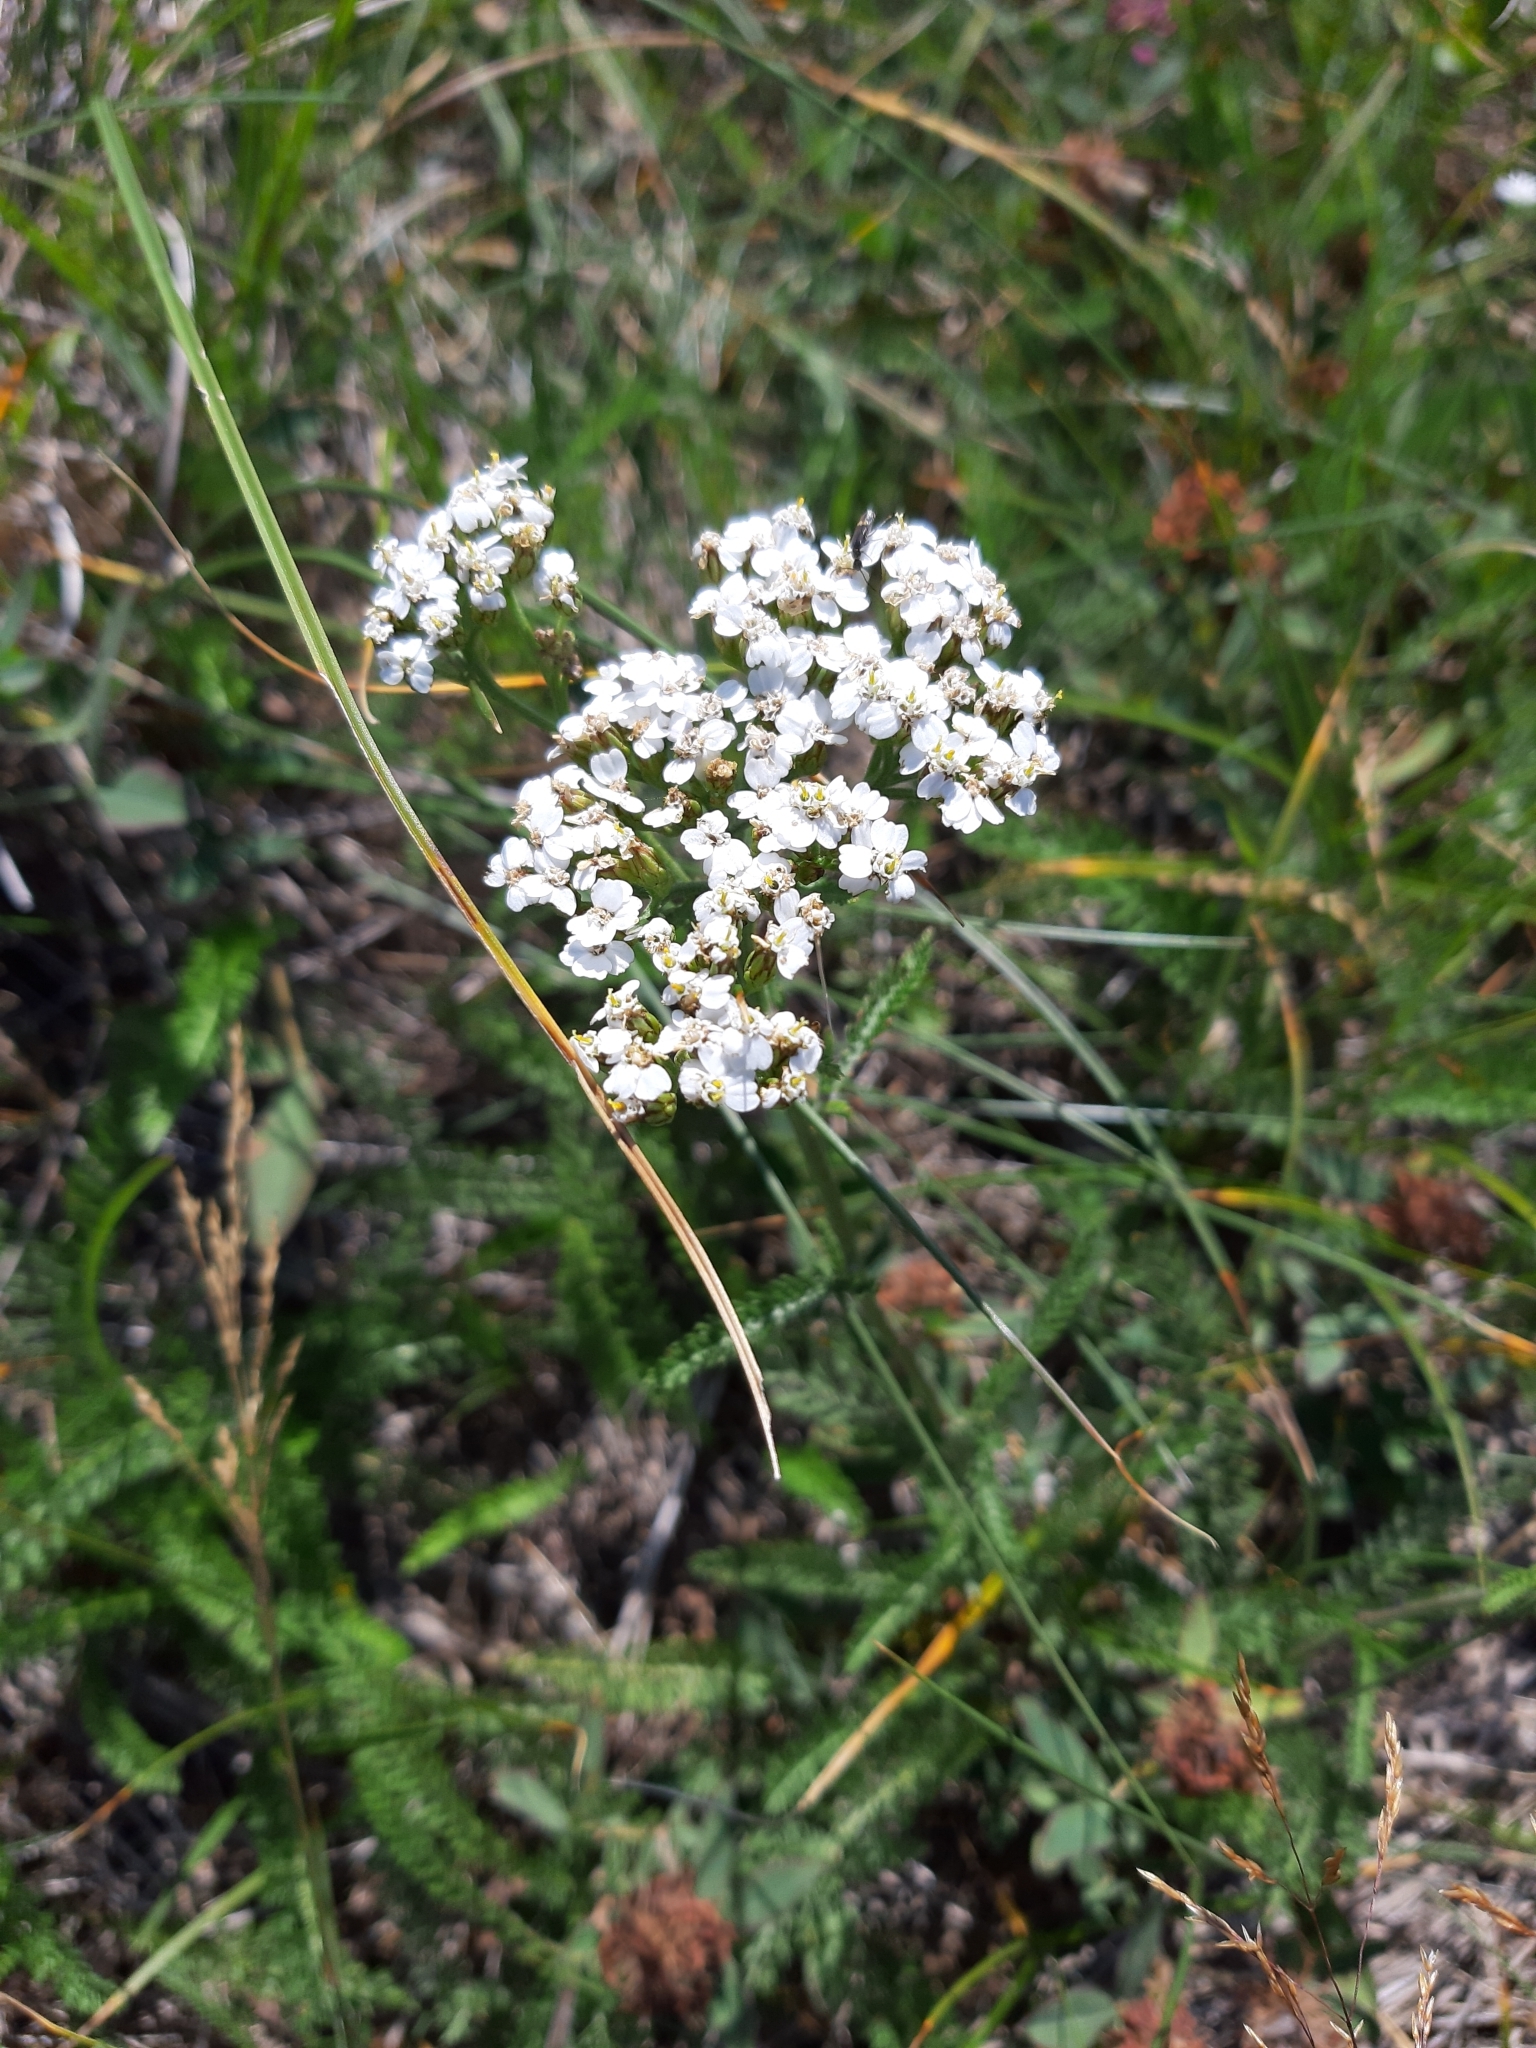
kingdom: Plantae
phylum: Tracheophyta
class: Magnoliopsida
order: Asterales
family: Asteraceae
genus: Achillea
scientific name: Achillea millefolium
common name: Yarrow
